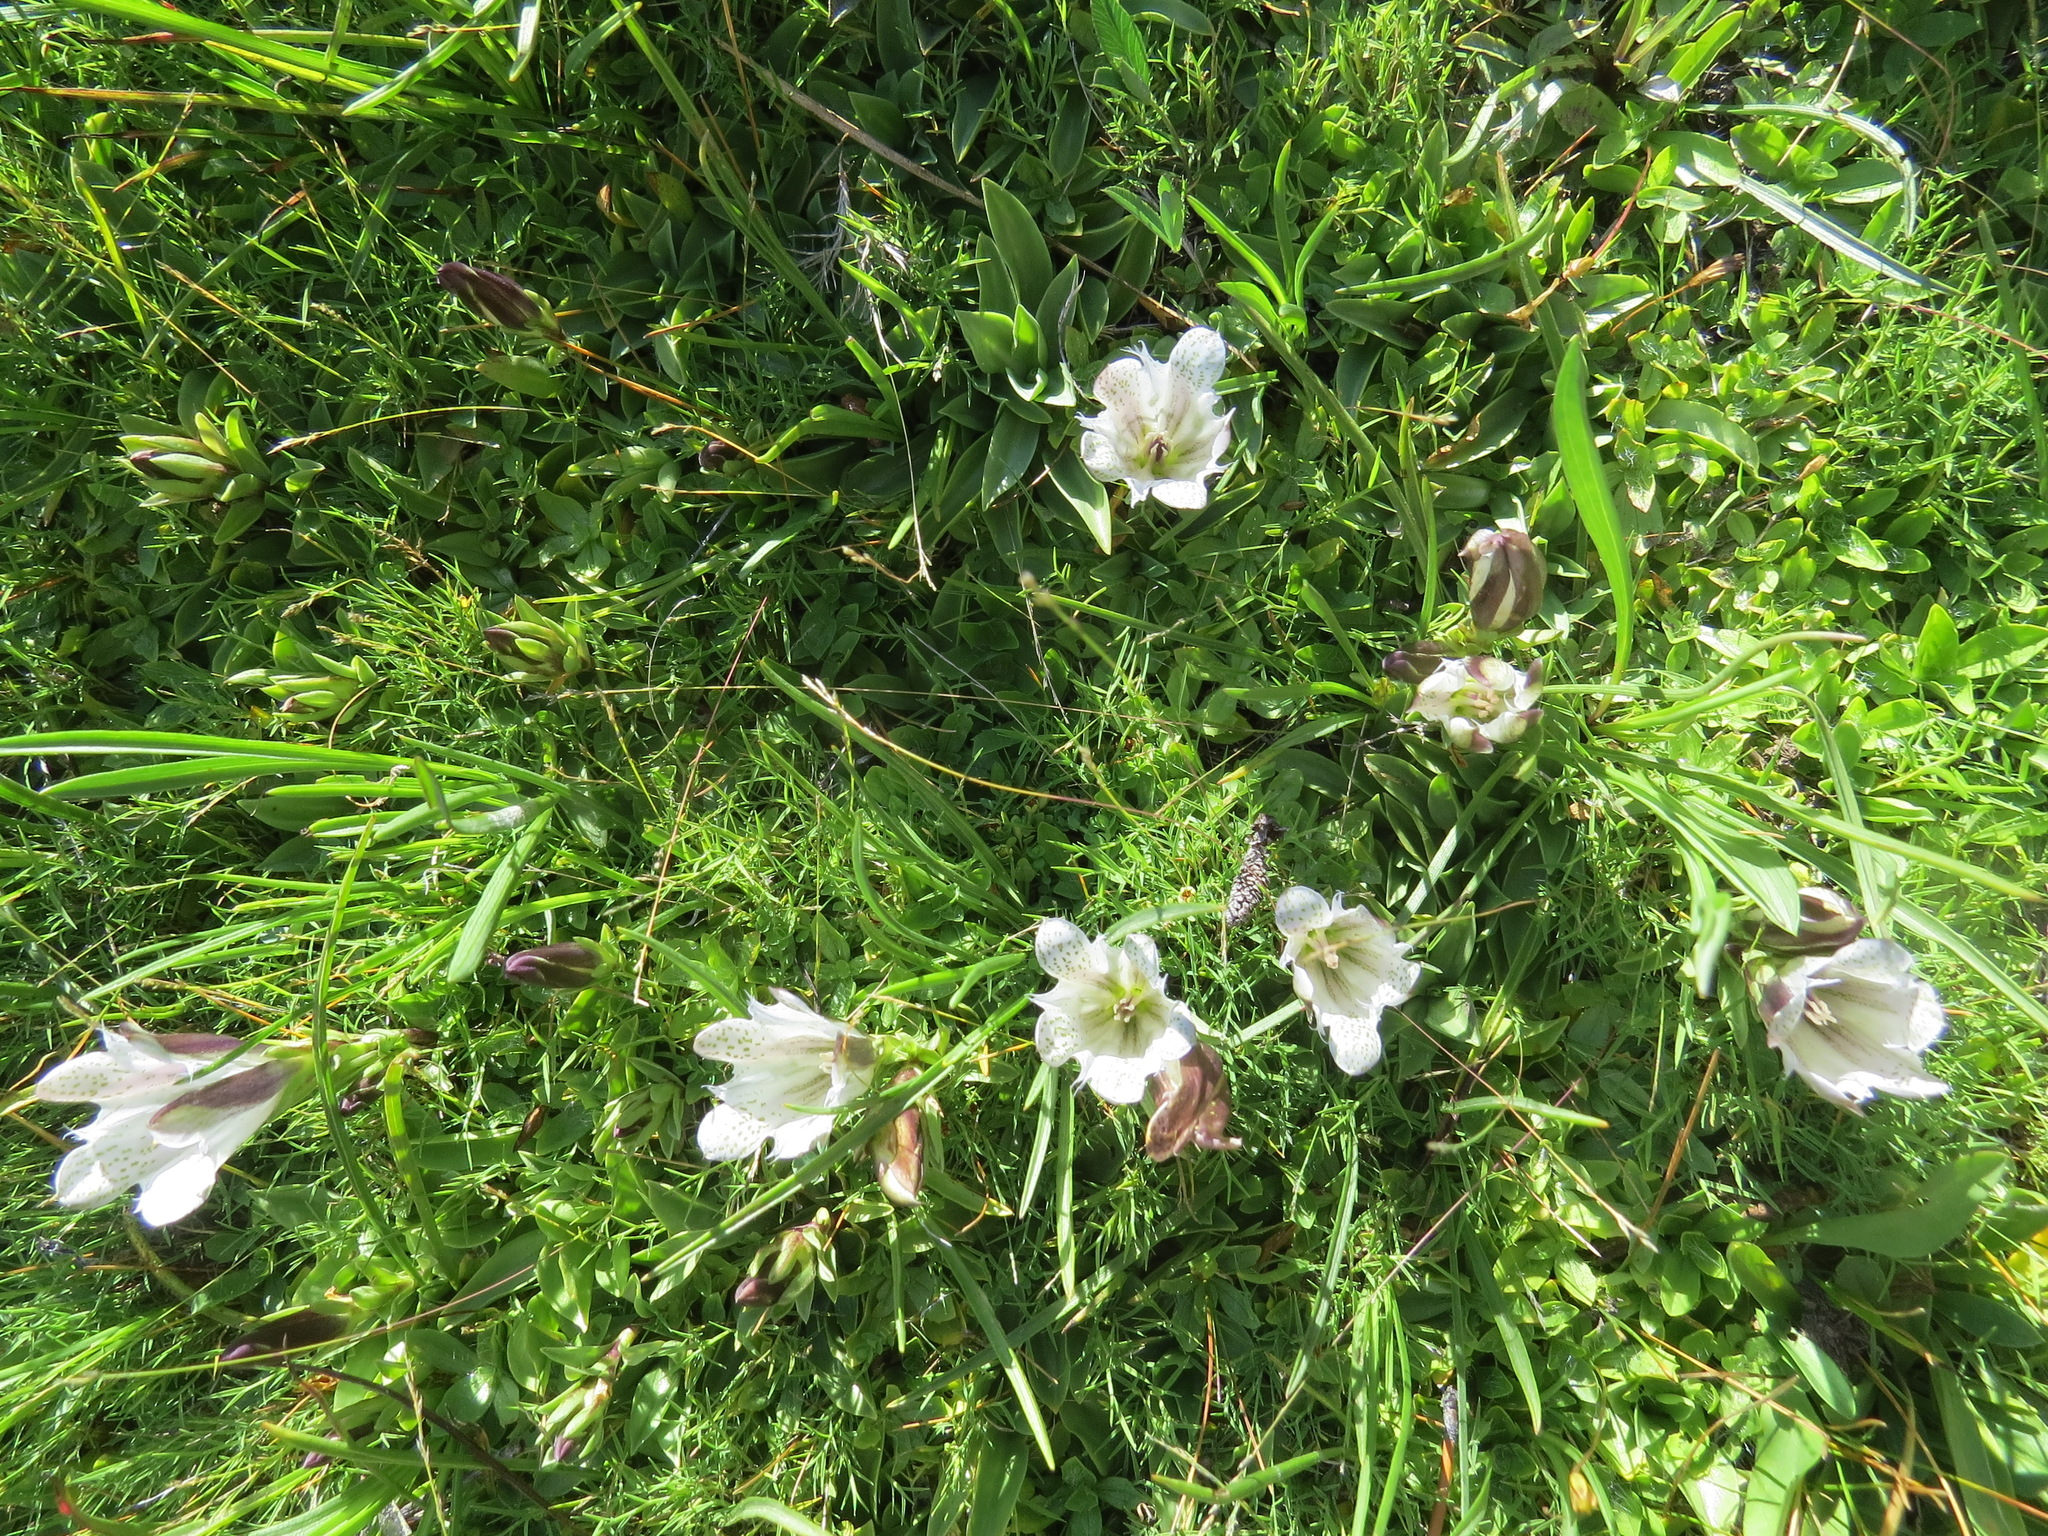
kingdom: Plantae
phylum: Tracheophyta
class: Magnoliopsida
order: Gentianales
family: Gentianaceae
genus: Gentiana
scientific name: Gentiana newberryi
